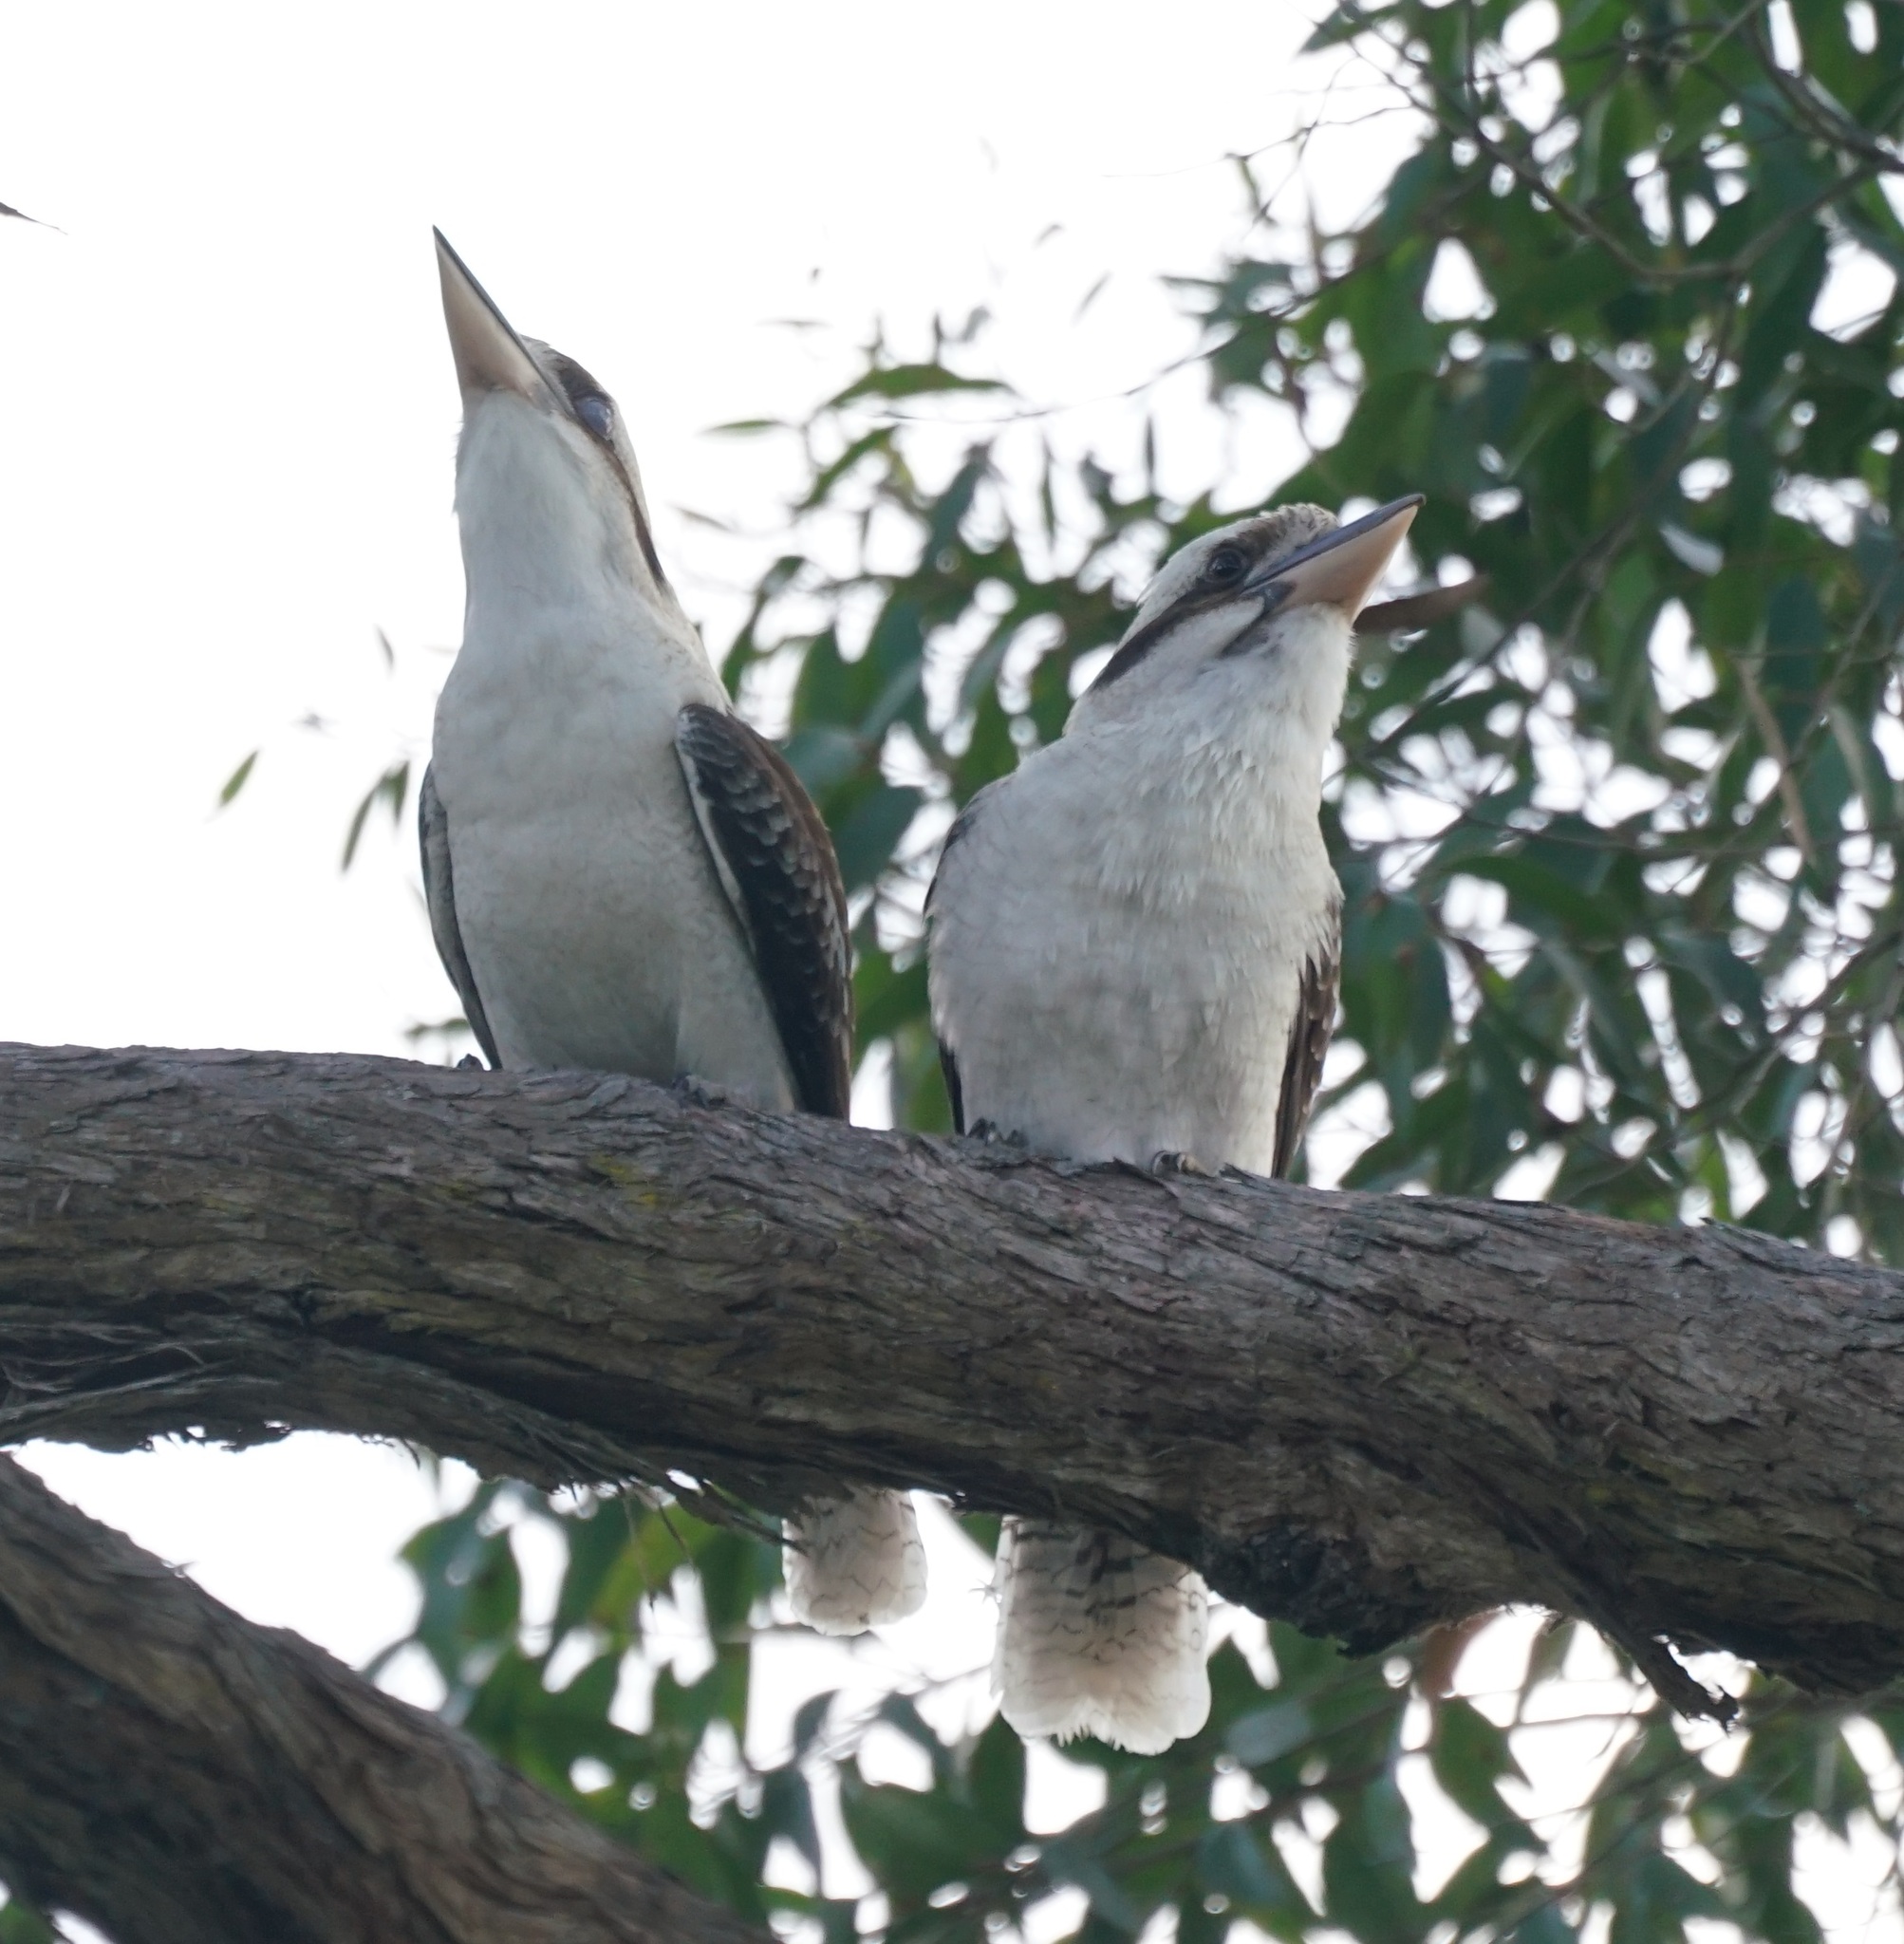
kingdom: Animalia
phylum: Chordata
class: Aves
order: Coraciiformes
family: Alcedinidae
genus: Dacelo
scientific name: Dacelo novaeguineae
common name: Laughing kookaburra
